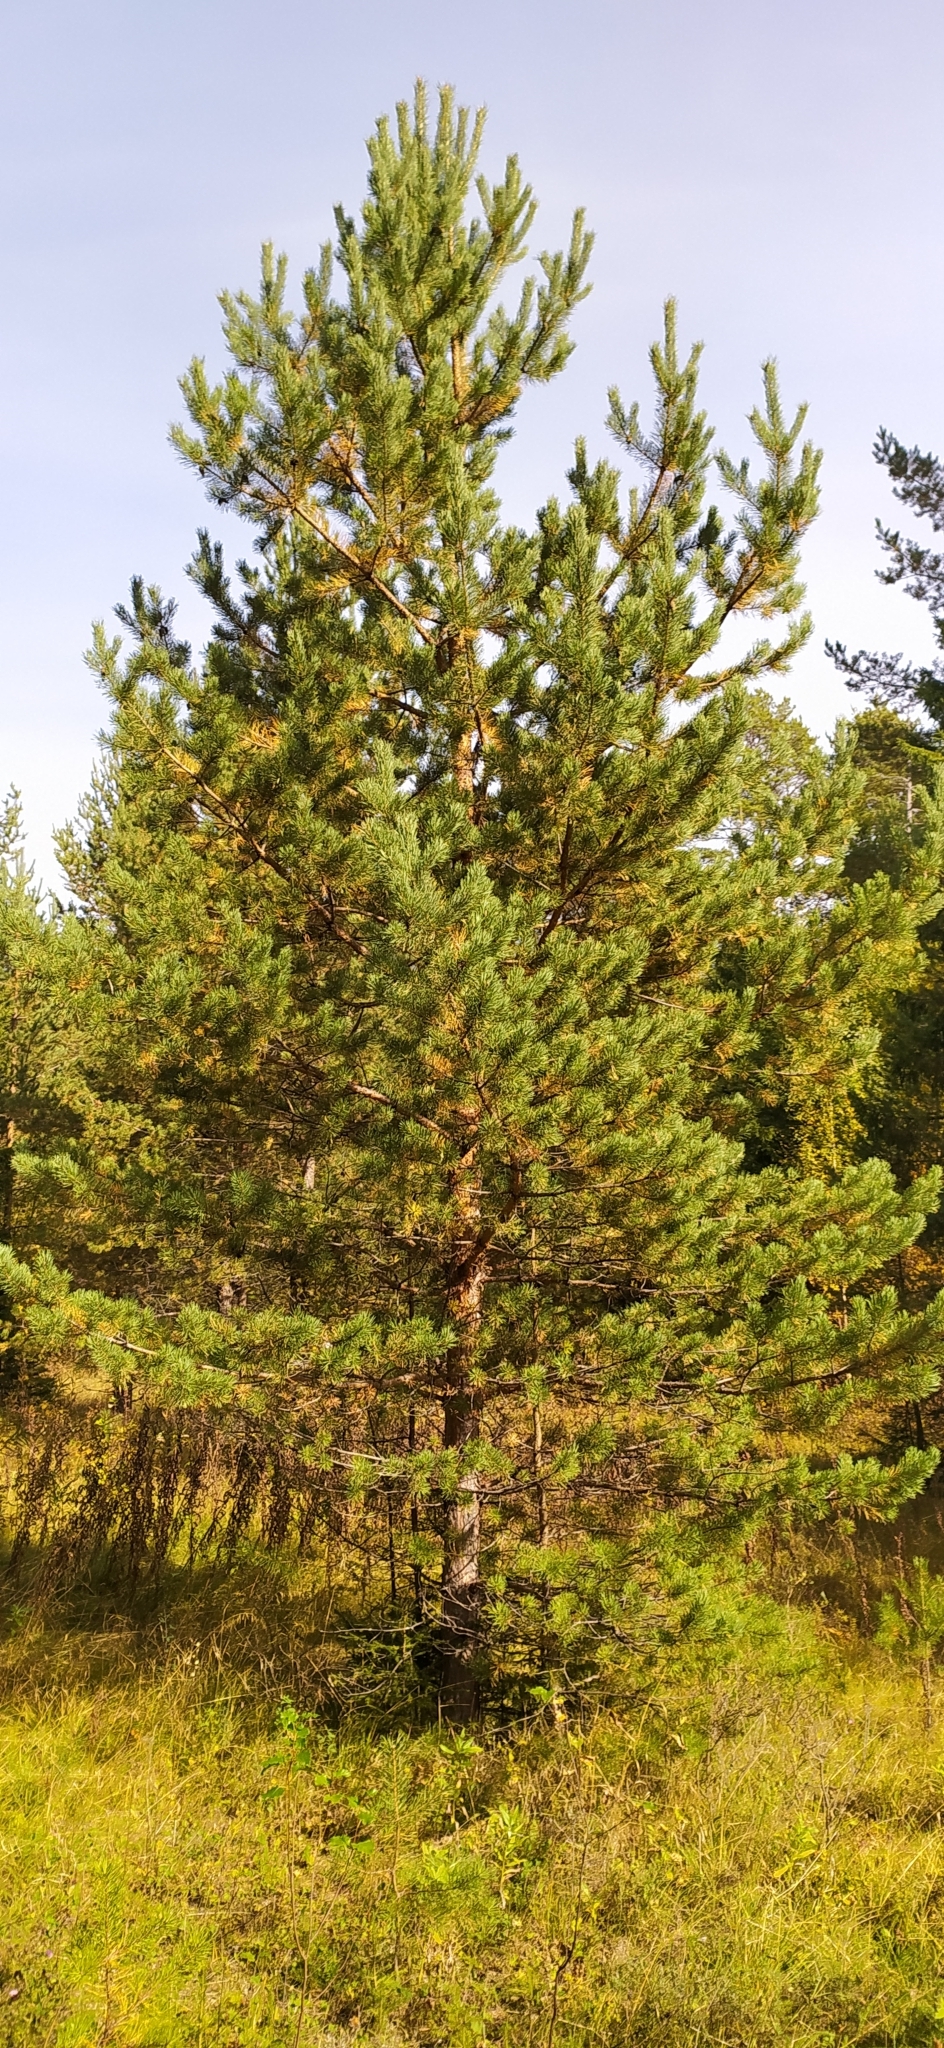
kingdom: Plantae
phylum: Tracheophyta
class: Pinopsida
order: Pinales
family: Pinaceae
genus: Pinus
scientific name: Pinus sylvestris
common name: Scots pine
